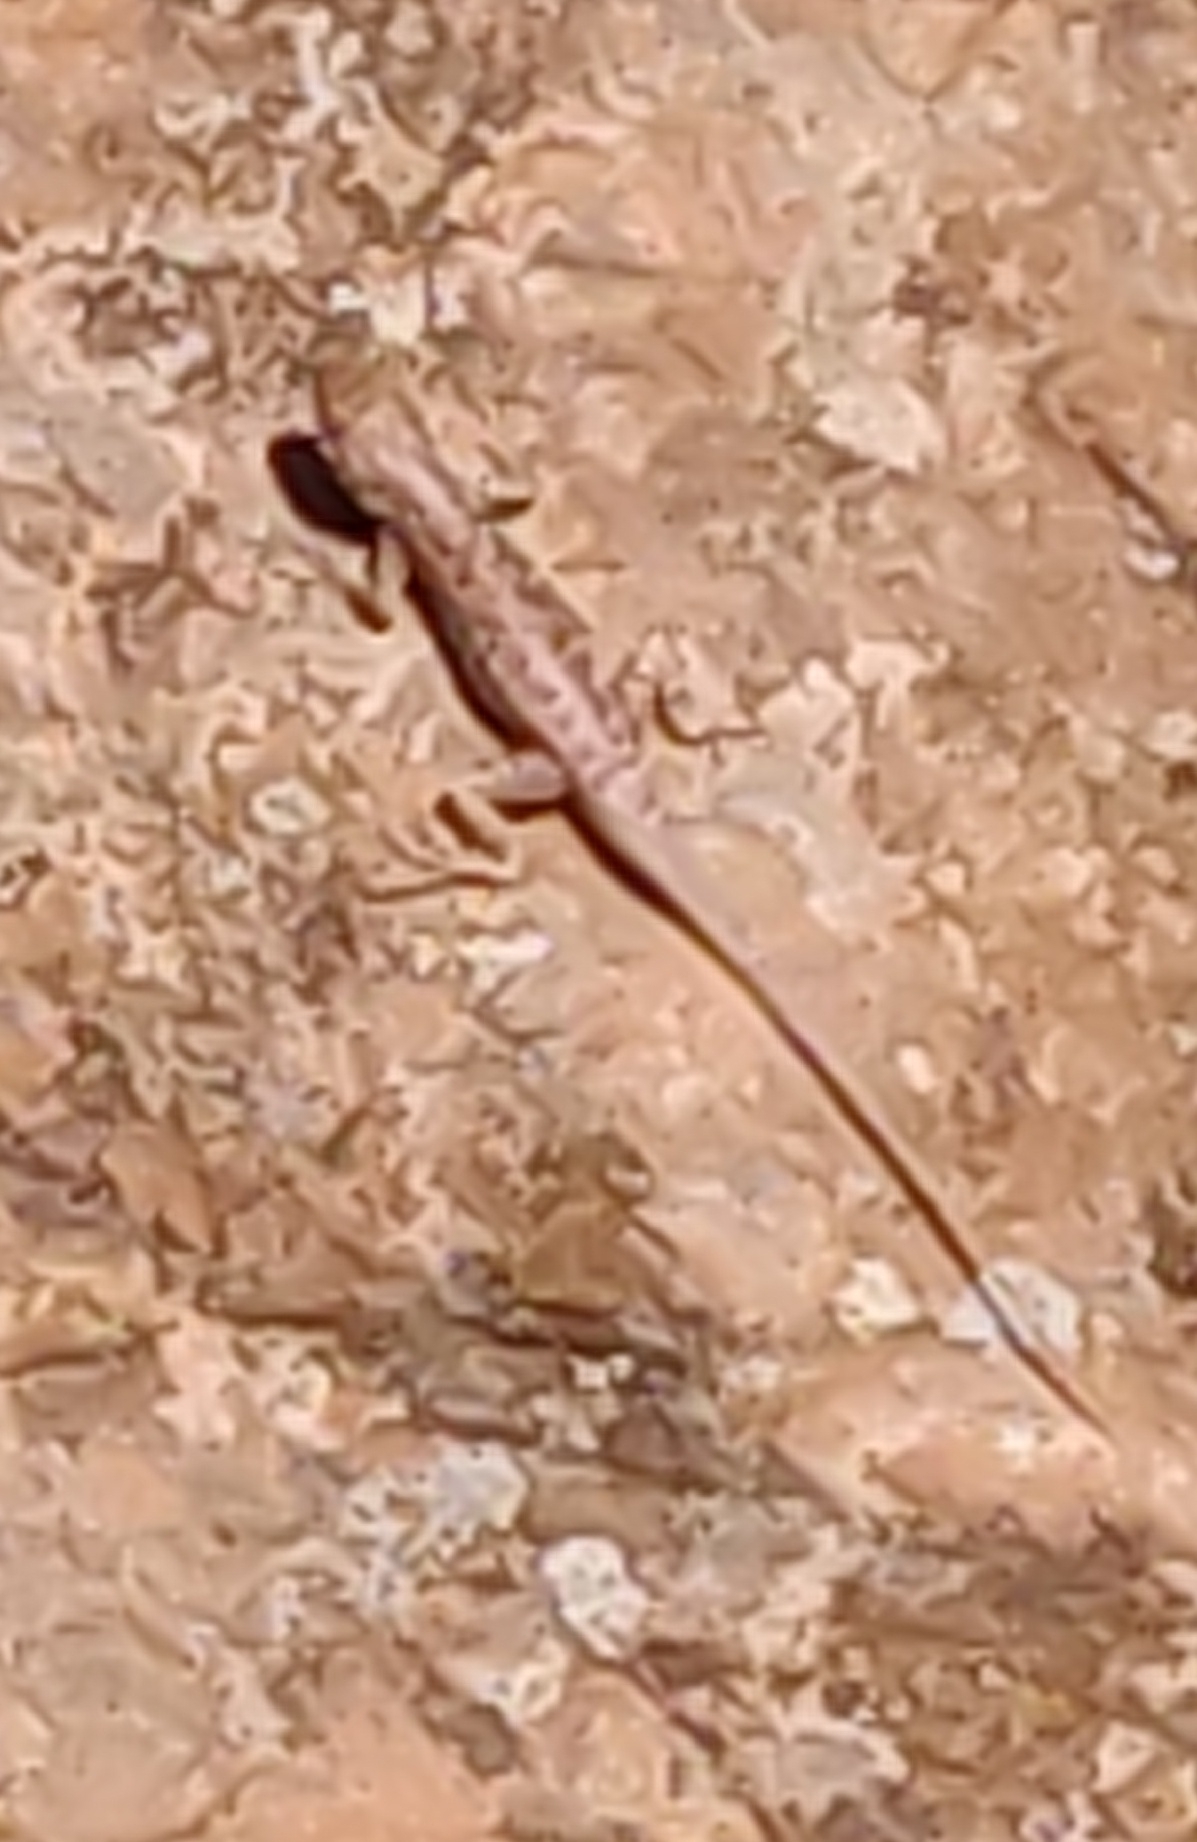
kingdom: Animalia
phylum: Chordata
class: Squamata
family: Phrynosomatidae
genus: Sceloporus
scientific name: Sceloporus tristichus
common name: Plateau fence lizard
